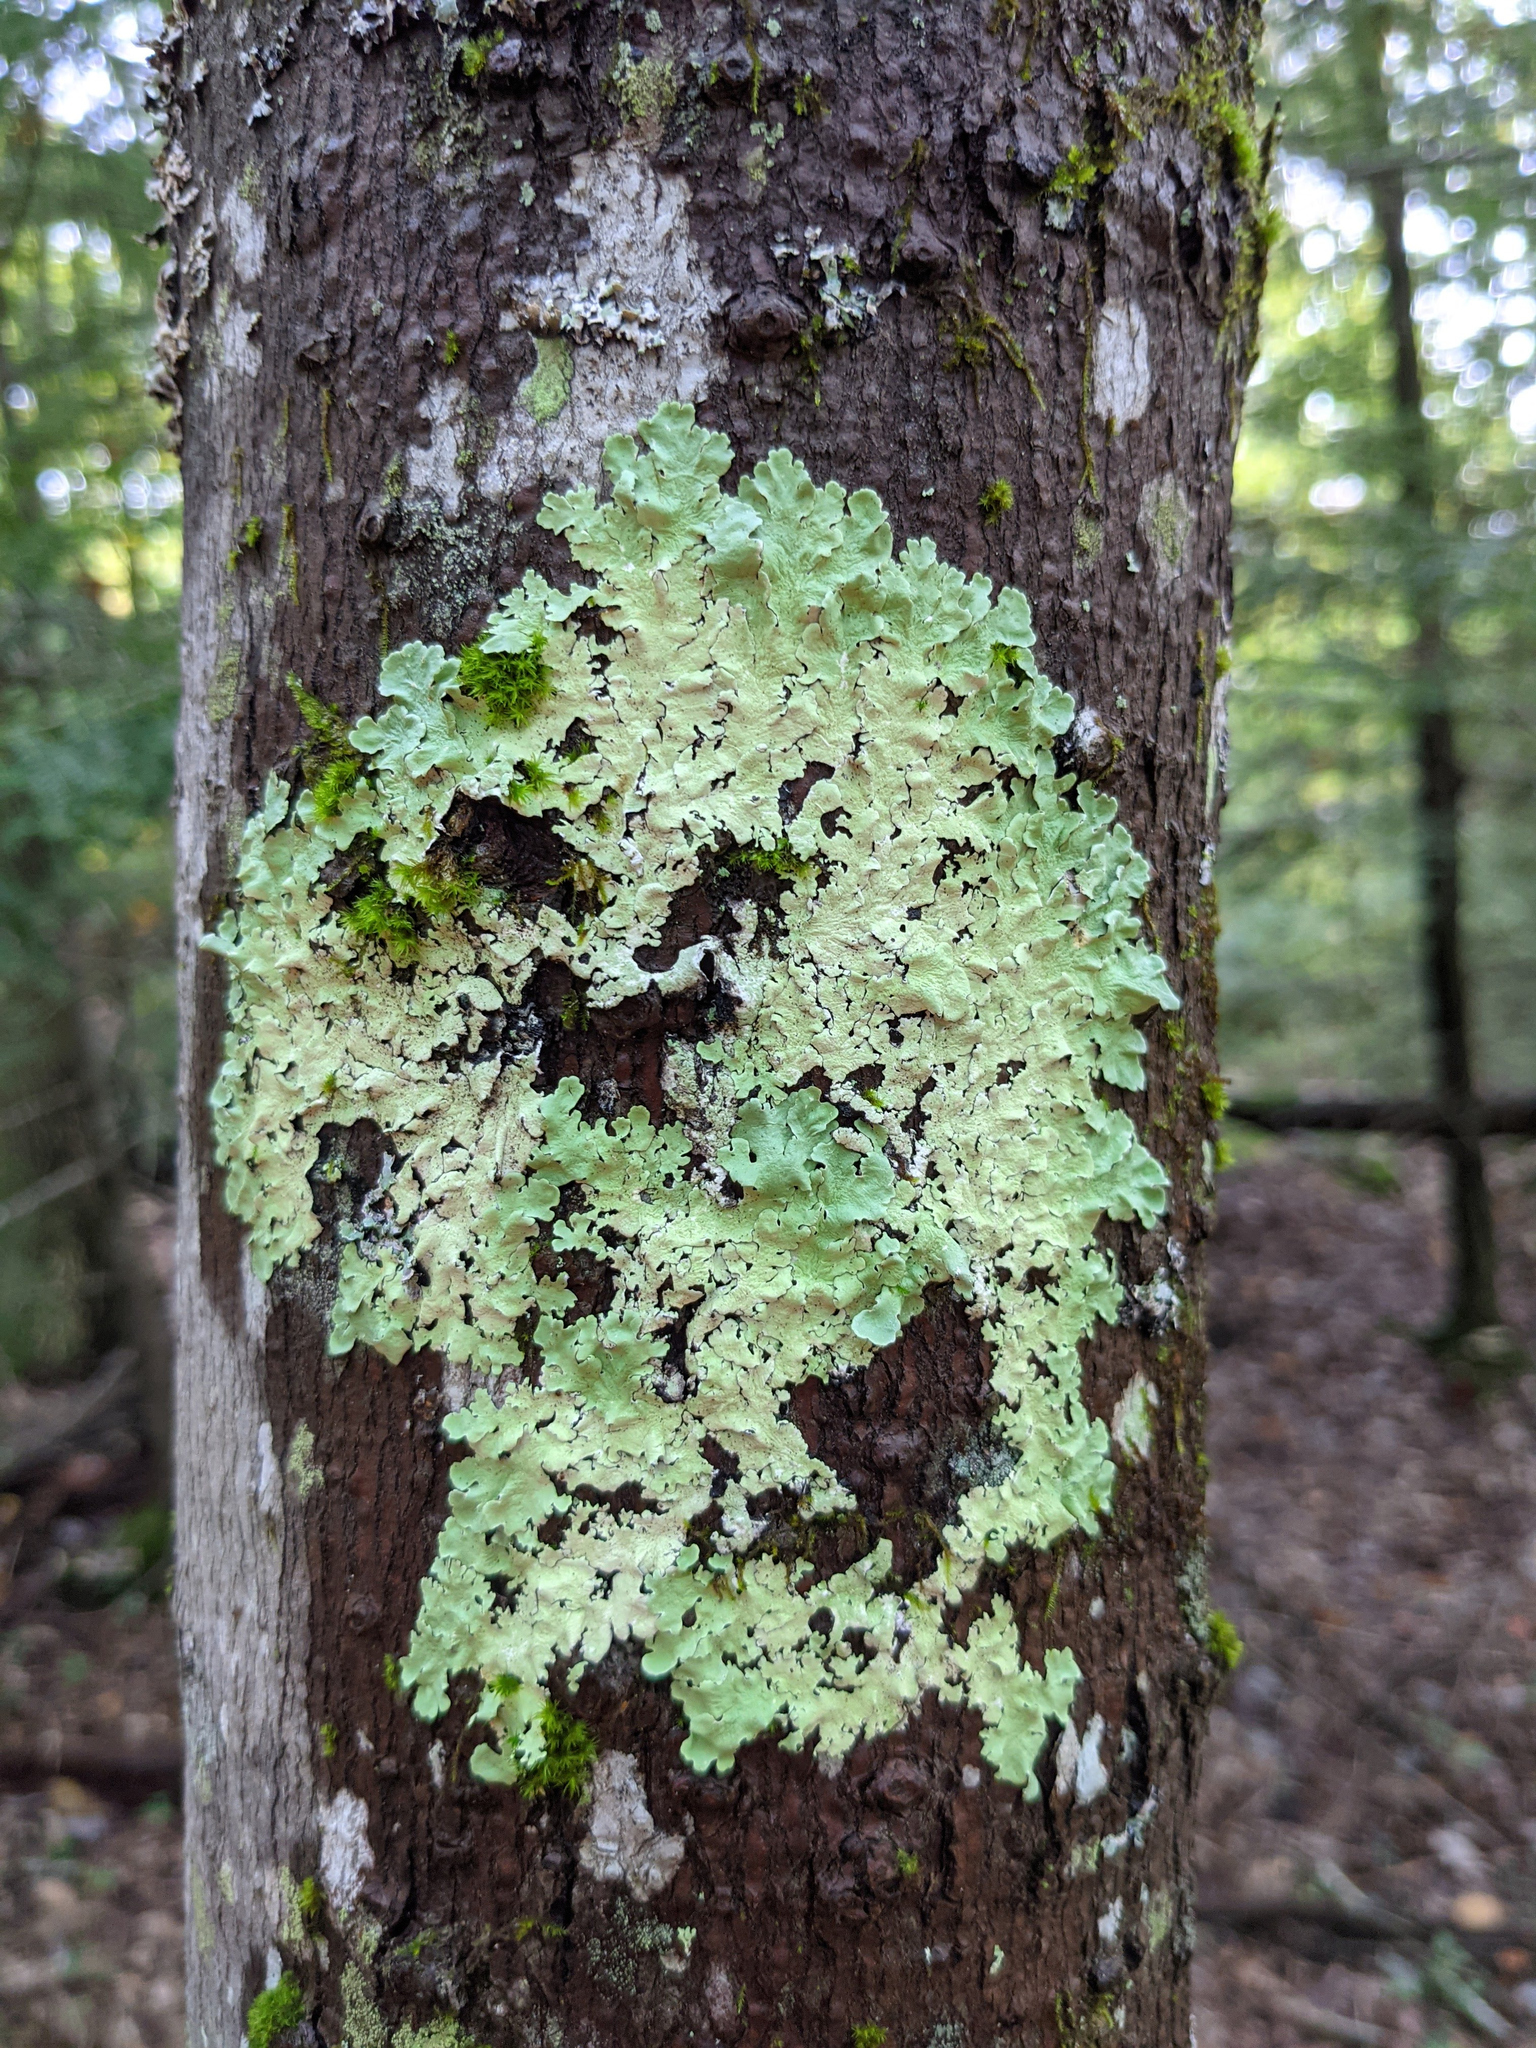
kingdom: Fungi
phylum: Ascomycota
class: Lecanoromycetes
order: Lecanorales
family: Parmeliaceae
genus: Flavoparmelia
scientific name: Flavoparmelia caperata
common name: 40-mile per hour lichen
